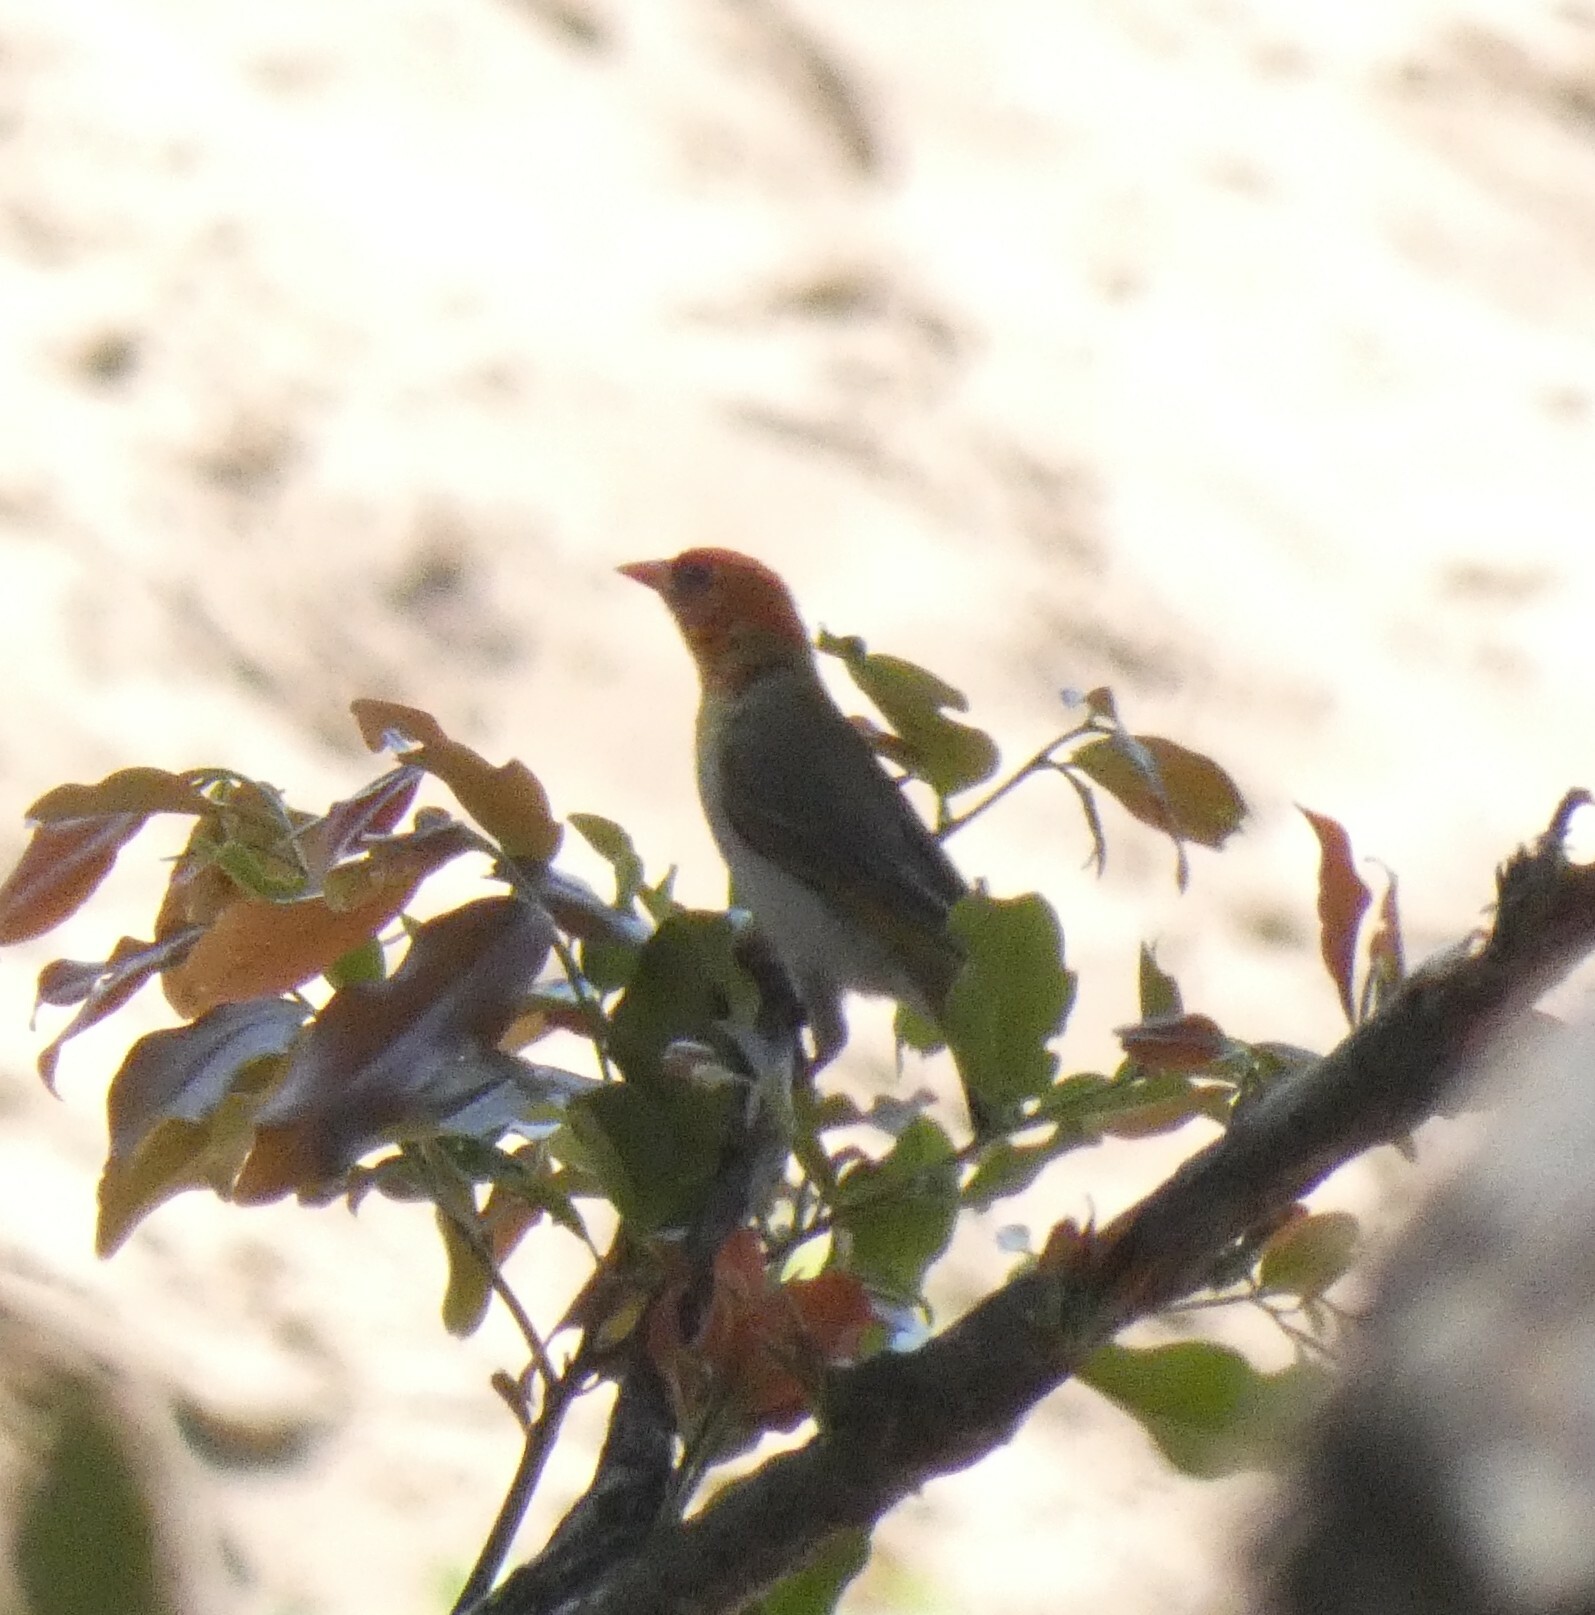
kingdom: Animalia
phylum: Chordata
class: Aves
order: Passeriformes
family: Ploceidae
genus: Anaplectes
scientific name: Anaplectes rubriceps
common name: Red-headed weaver
